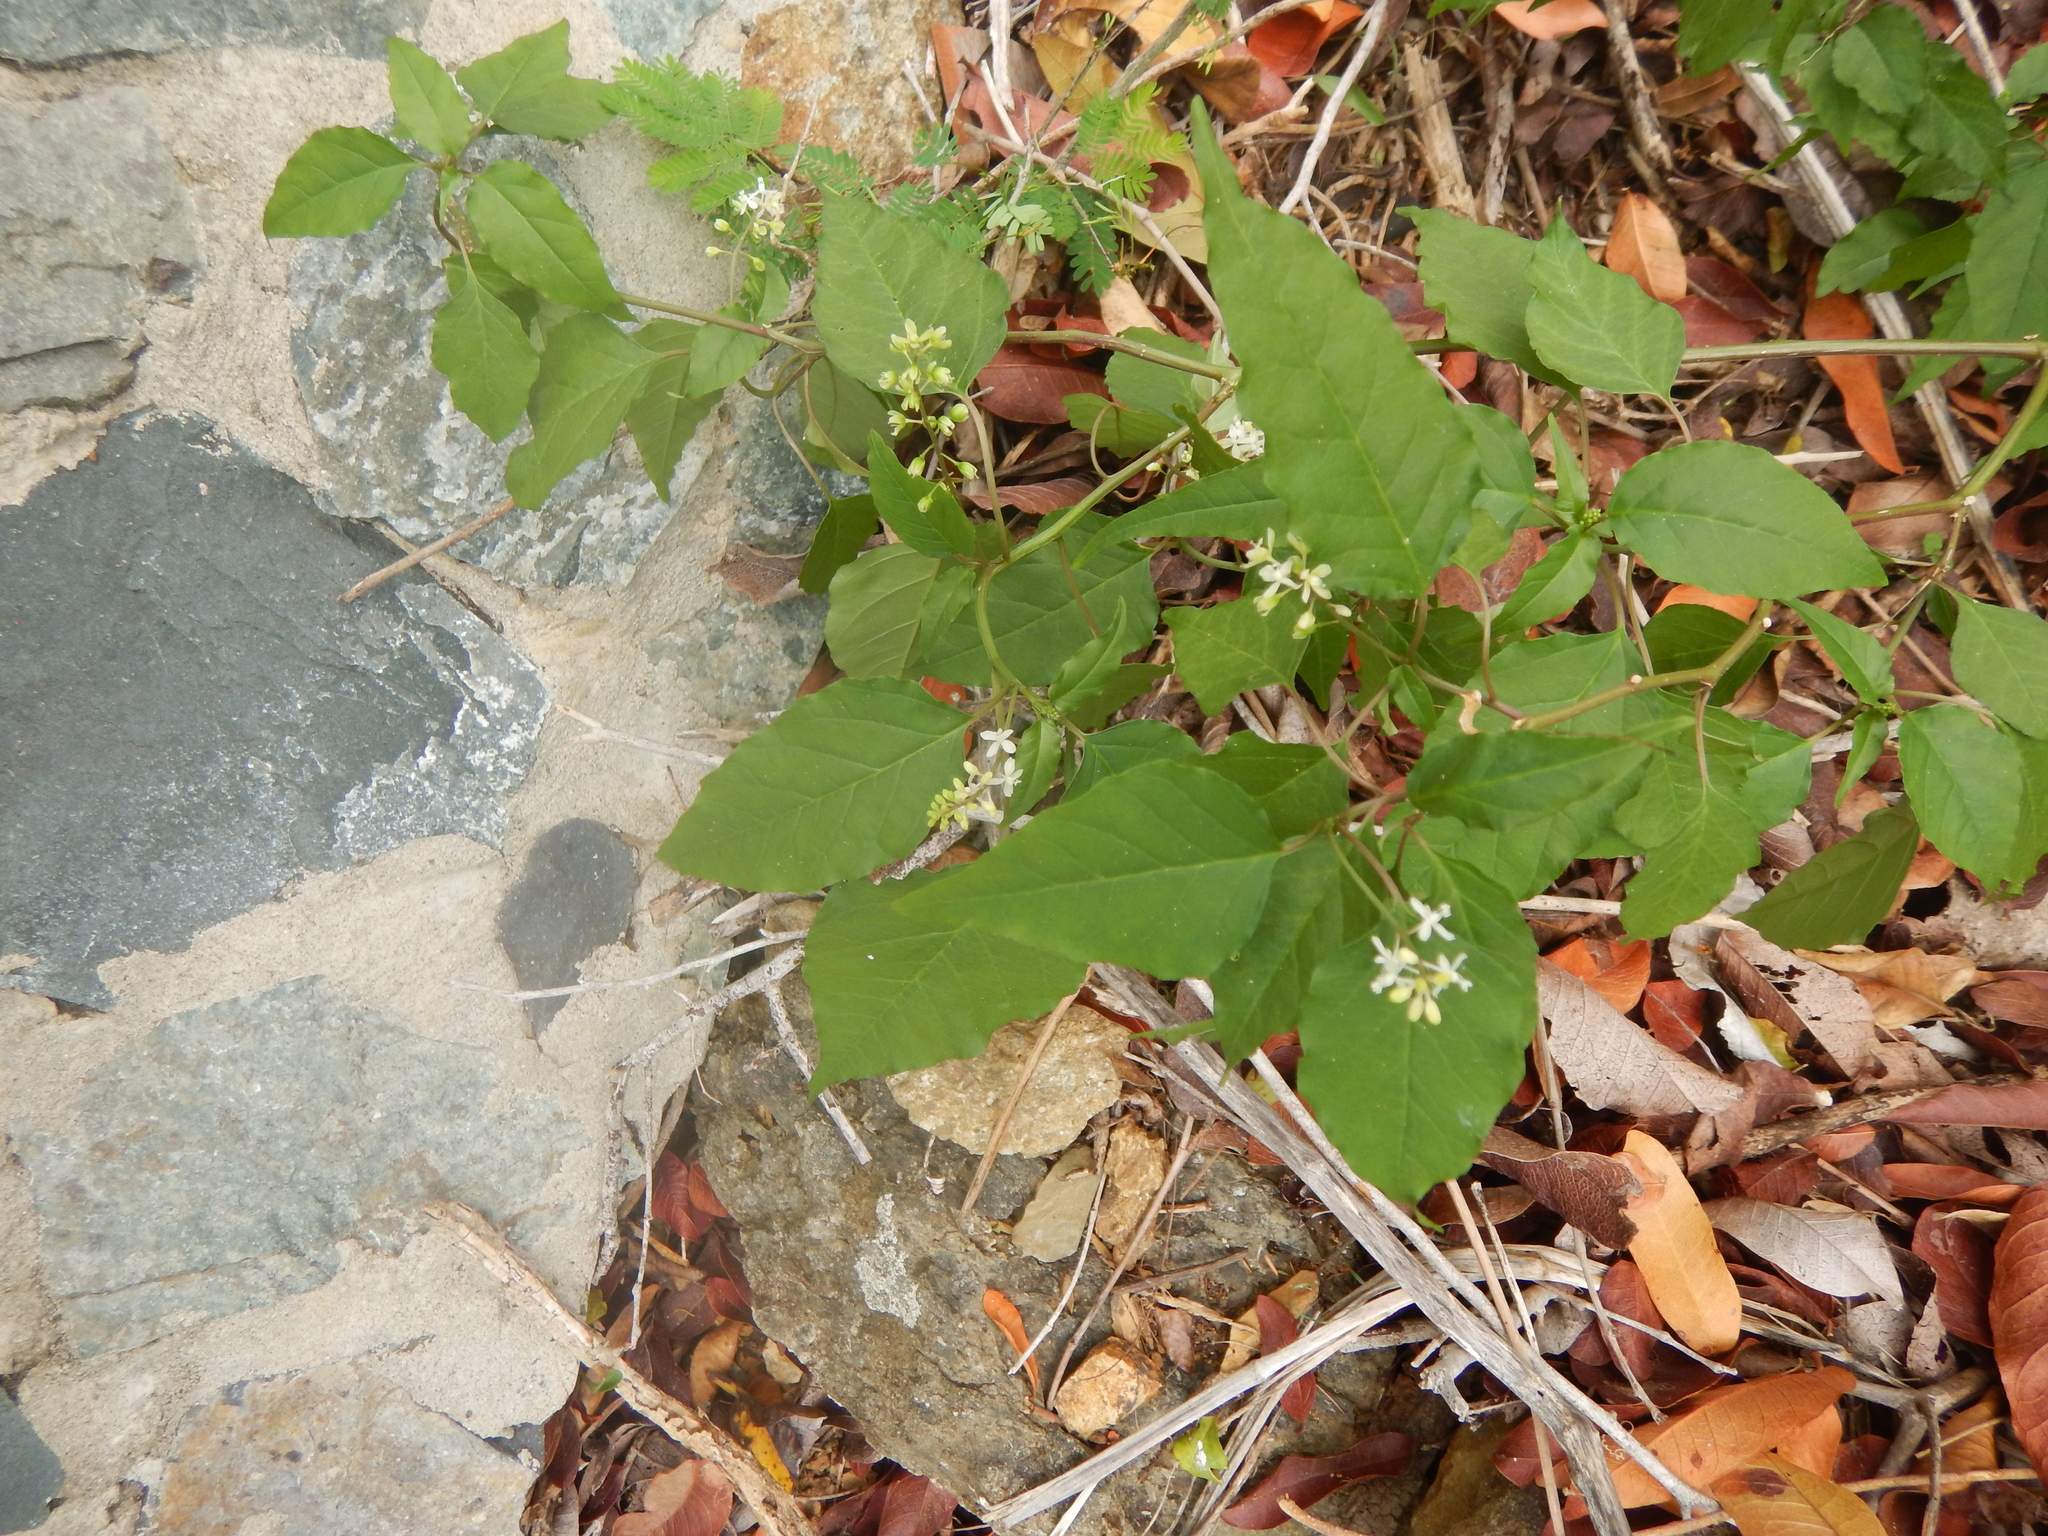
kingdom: Plantae
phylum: Tracheophyta
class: Magnoliopsida
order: Caryophyllales
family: Phytolaccaceae
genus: Rivina
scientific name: Rivina humilis
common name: Rougeplant
